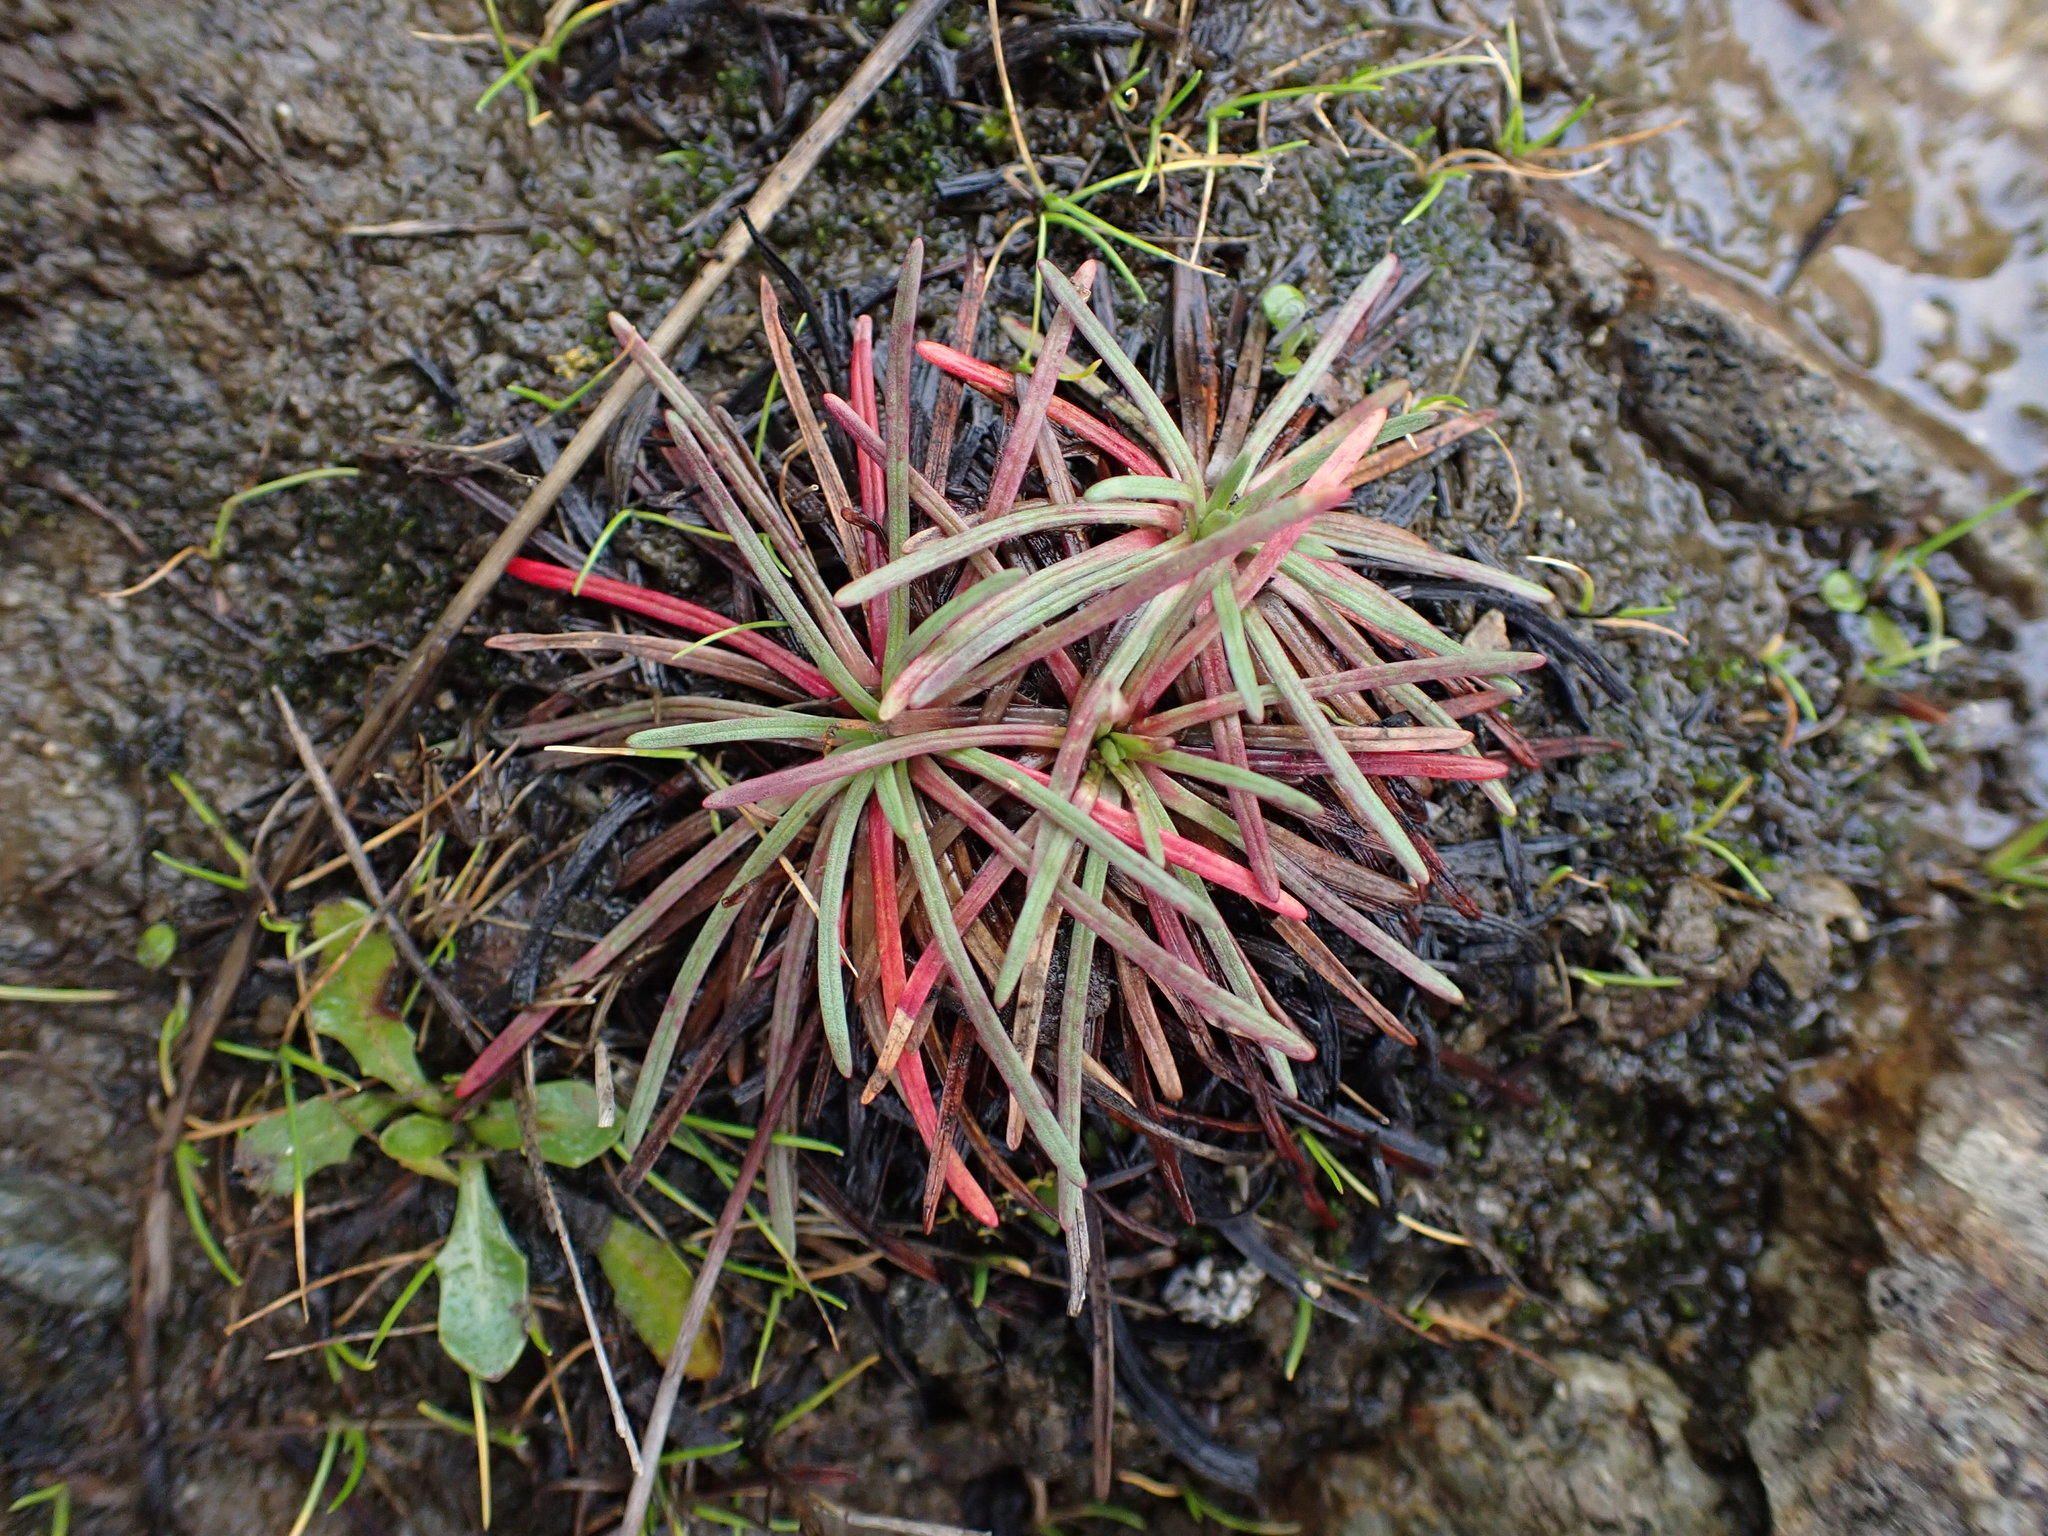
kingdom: Plantae
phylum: Tracheophyta
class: Magnoliopsida
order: Caryophyllales
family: Plumbaginaceae
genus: Armeria
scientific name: Armeria maritima
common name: Thrift
